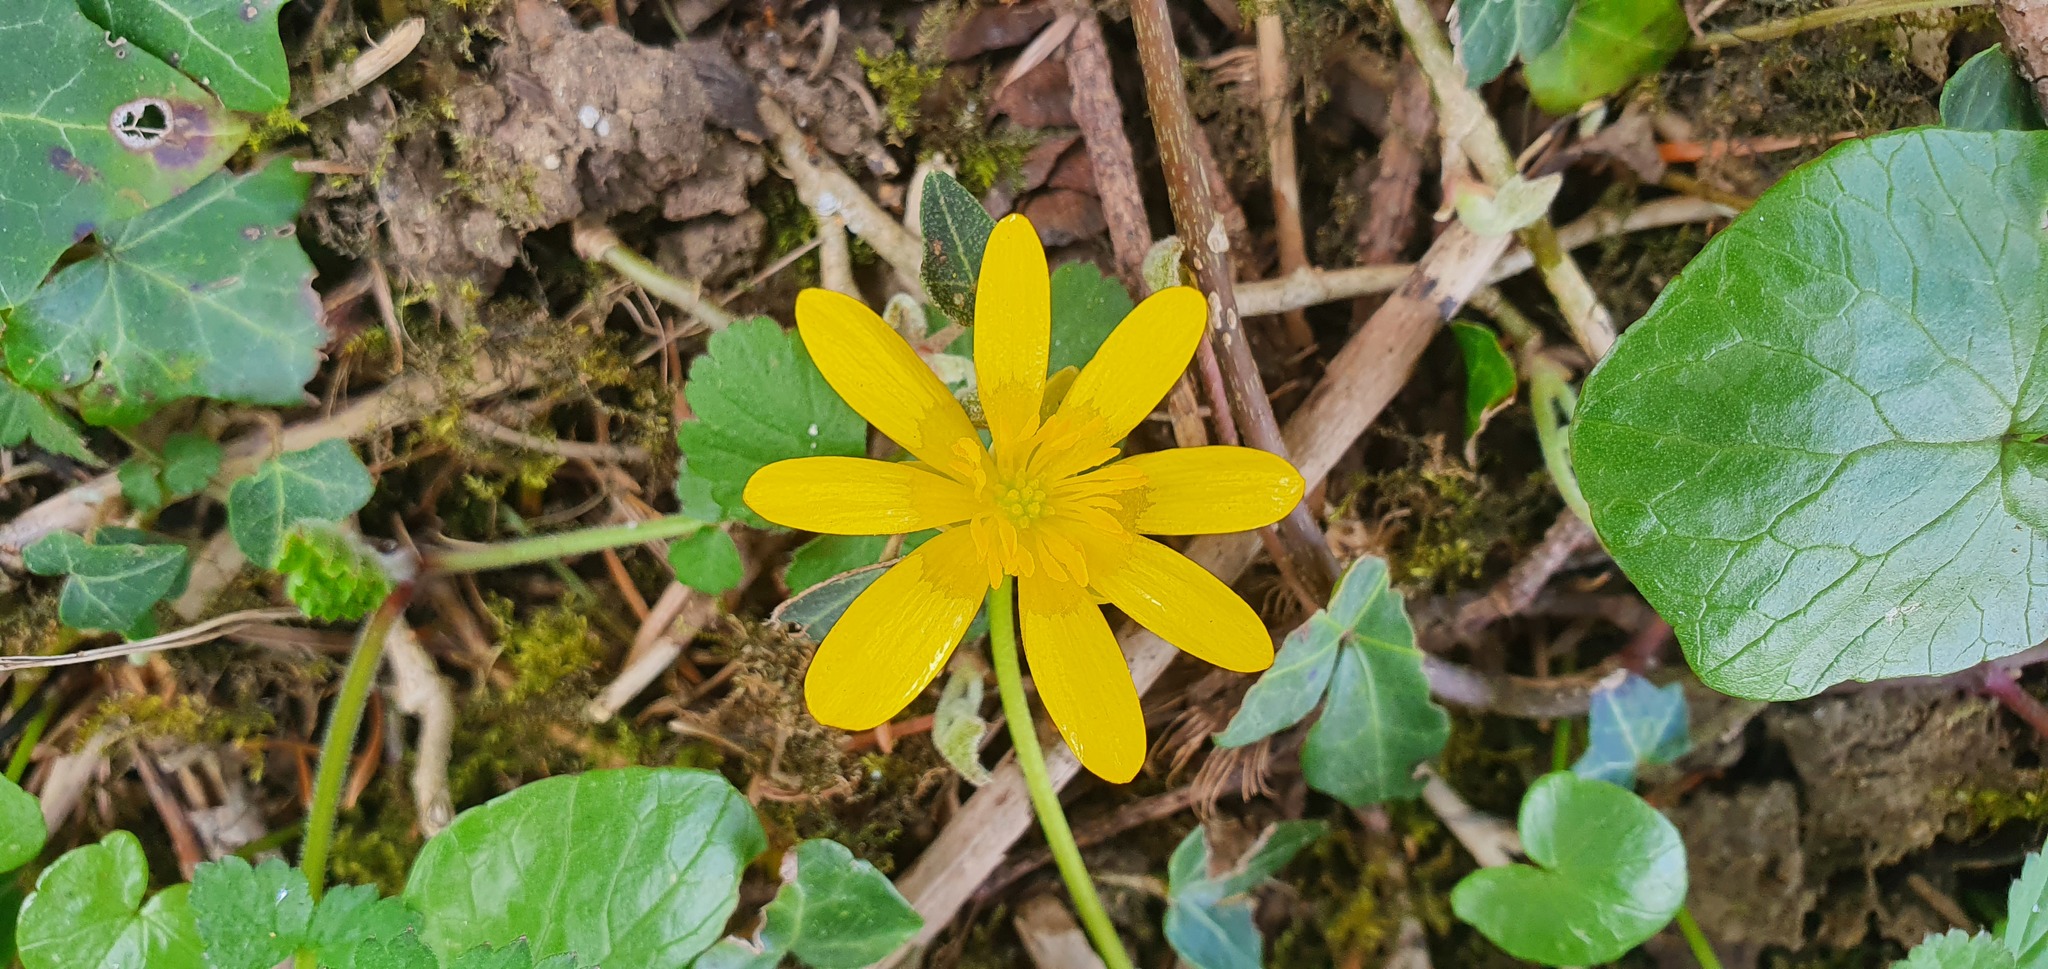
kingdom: Plantae
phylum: Tracheophyta
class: Magnoliopsida
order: Ranunculales
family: Ranunculaceae
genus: Ficaria
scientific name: Ficaria verna
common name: Lesser celandine
